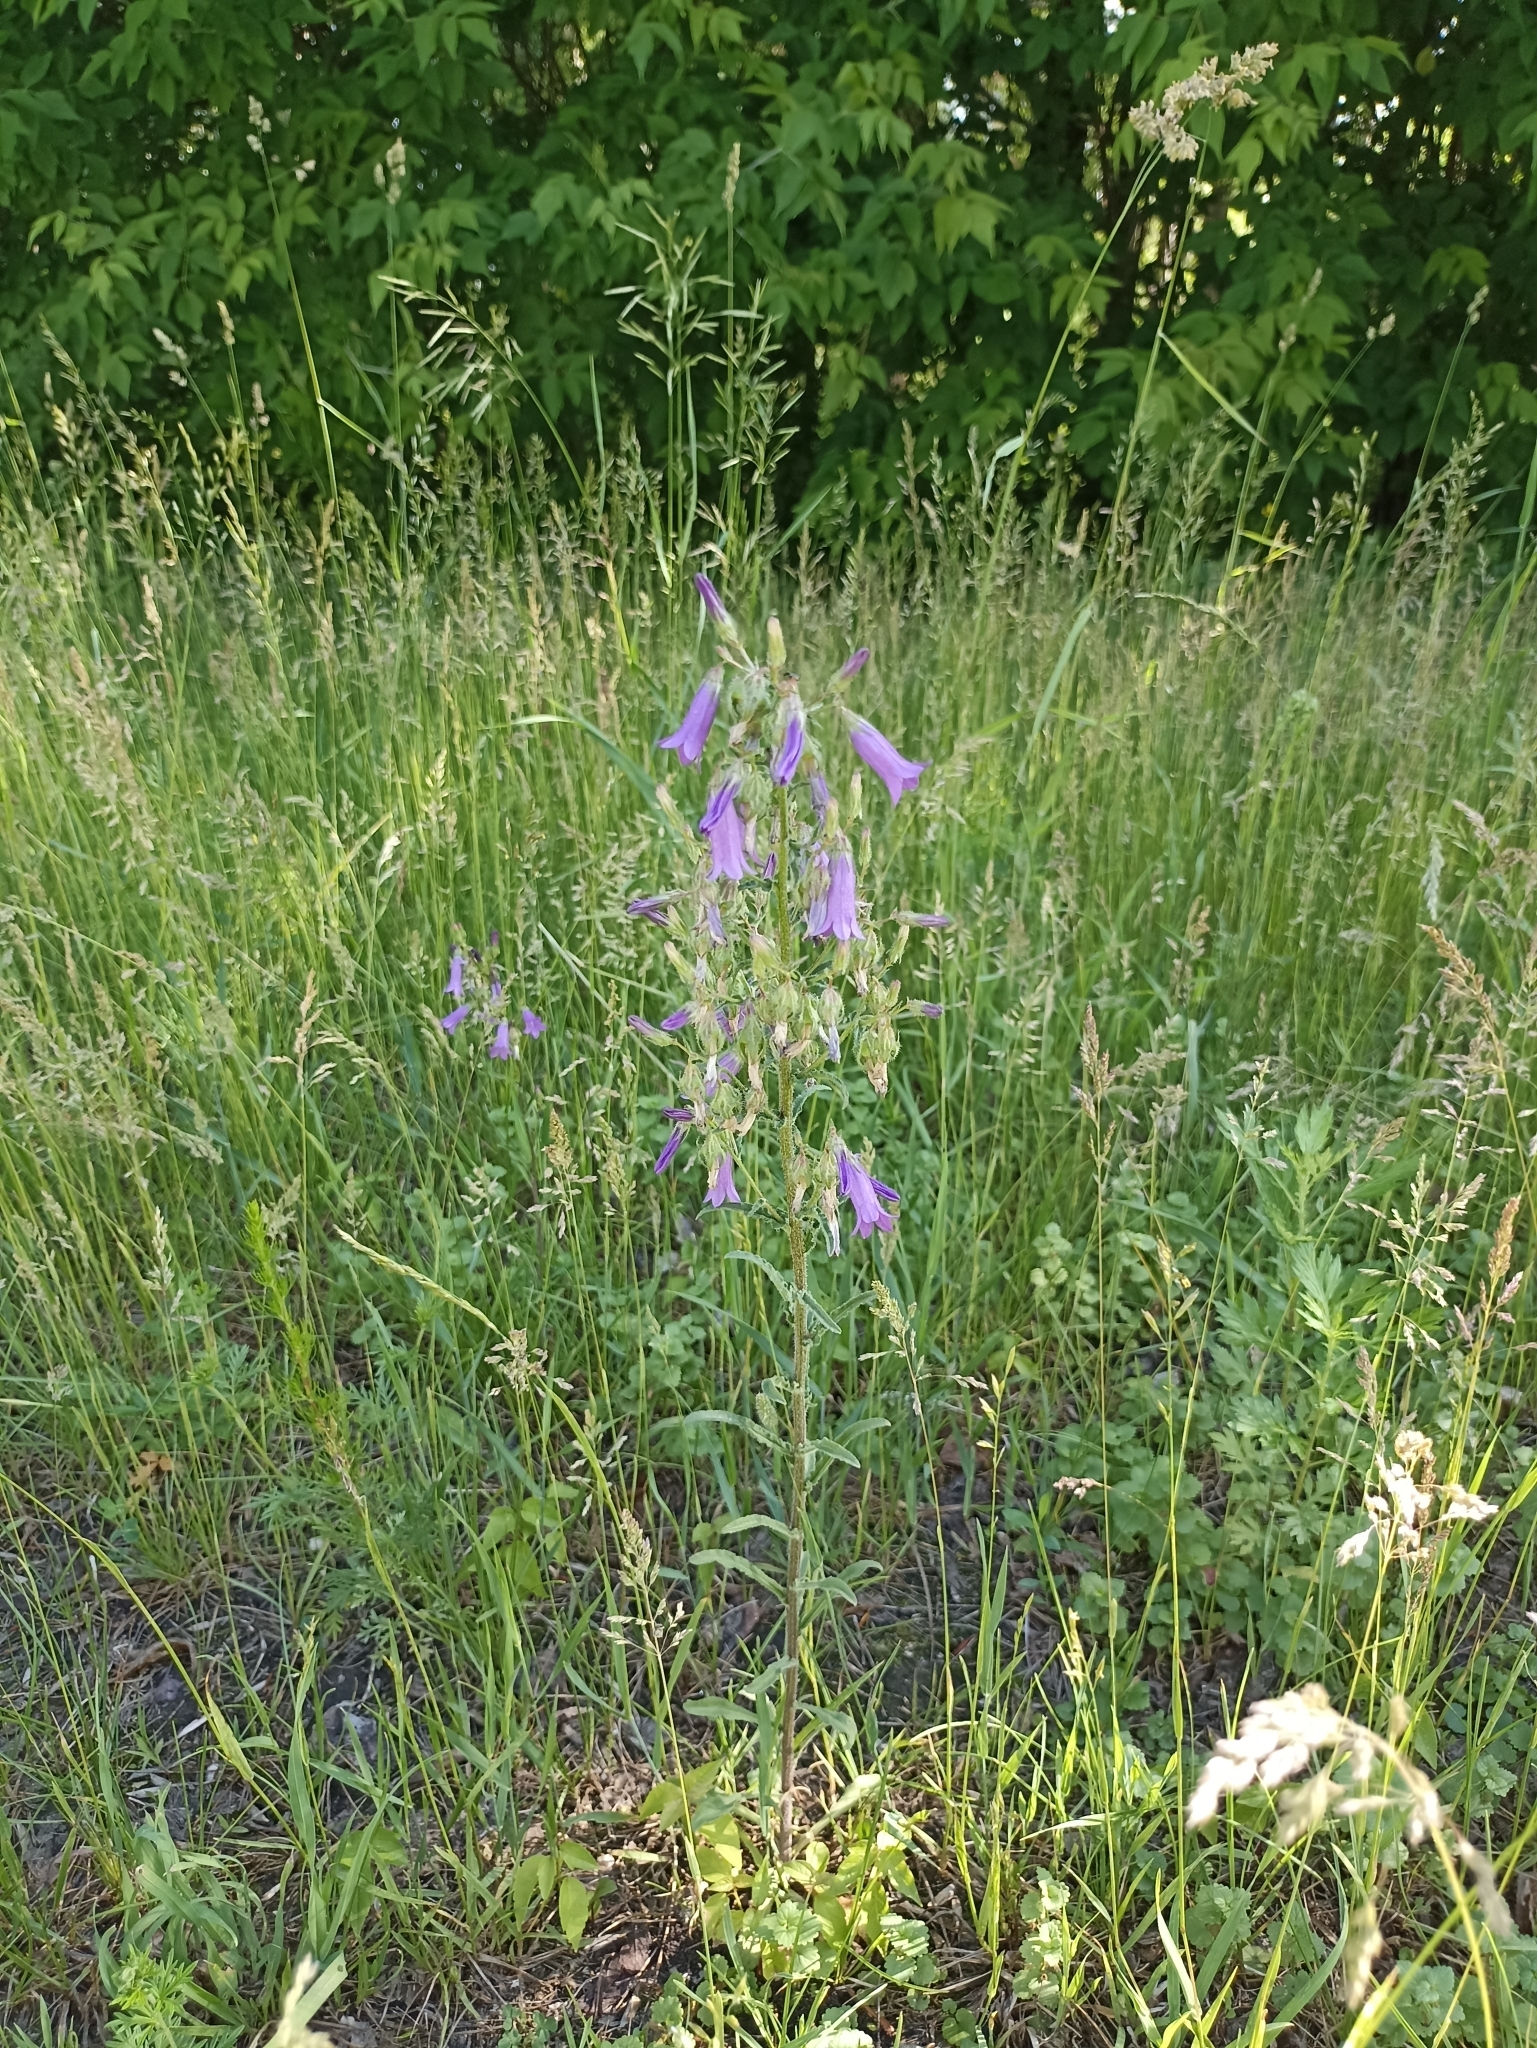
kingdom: Plantae
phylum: Tracheophyta
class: Magnoliopsida
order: Asterales
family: Campanulaceae
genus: Campanula
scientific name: Campanula sibirica
